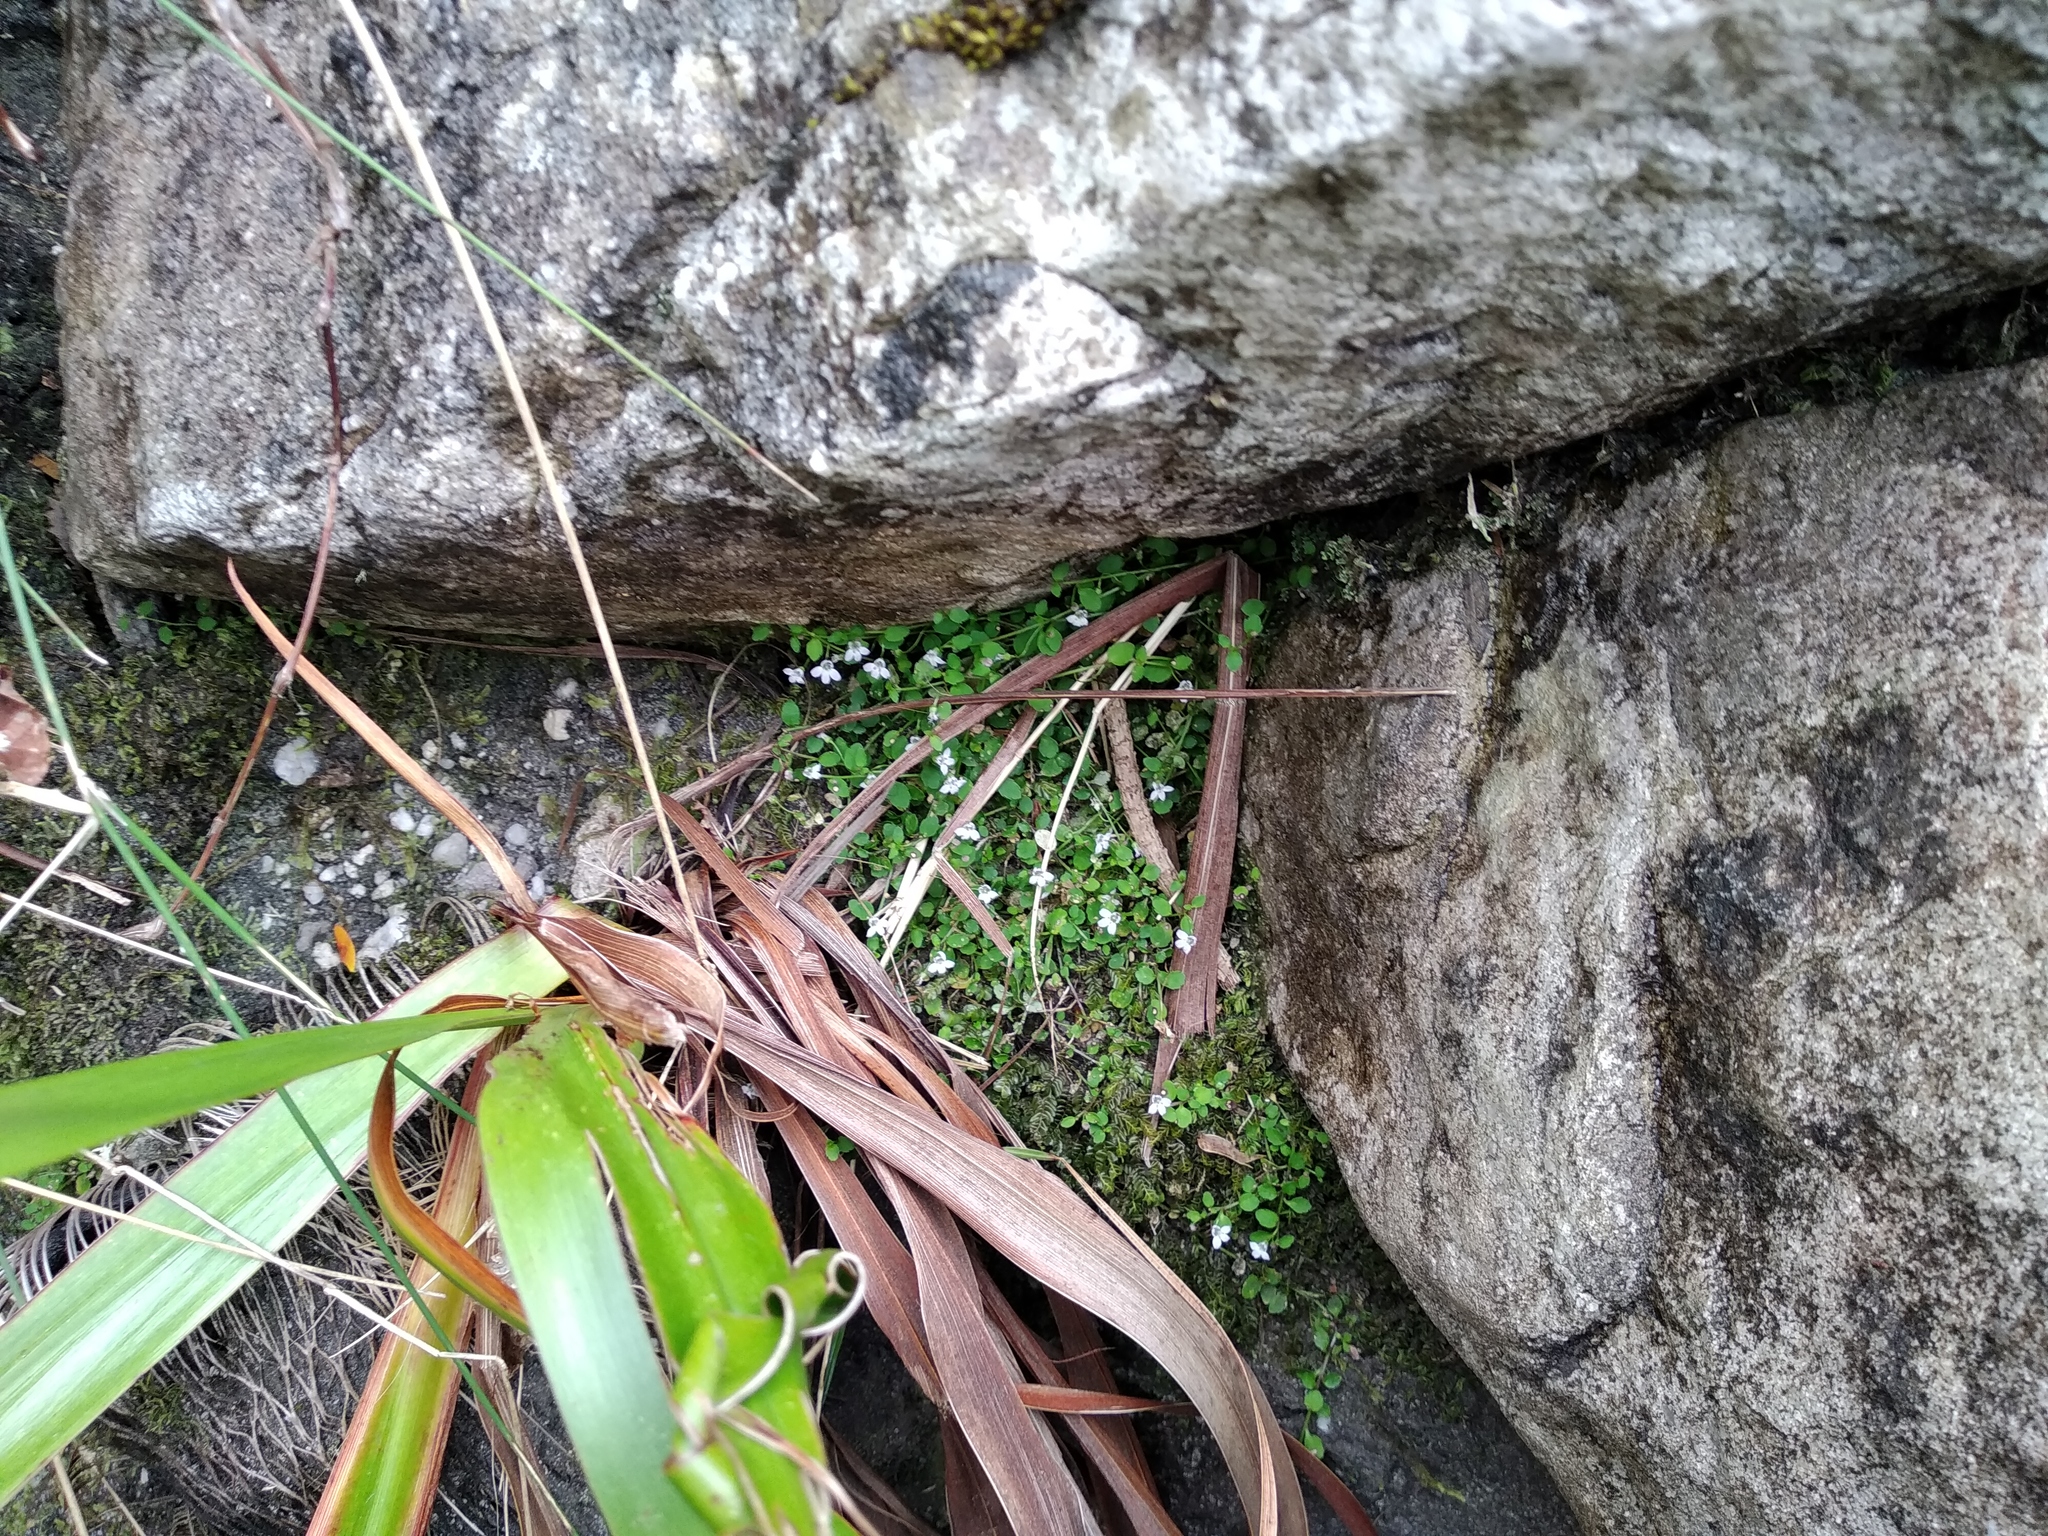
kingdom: Plantae
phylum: Tracheophyta
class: Magnoliopsida
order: Asterales
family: Campanulaceae
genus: Unigenes
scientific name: Unigenes humifusa
